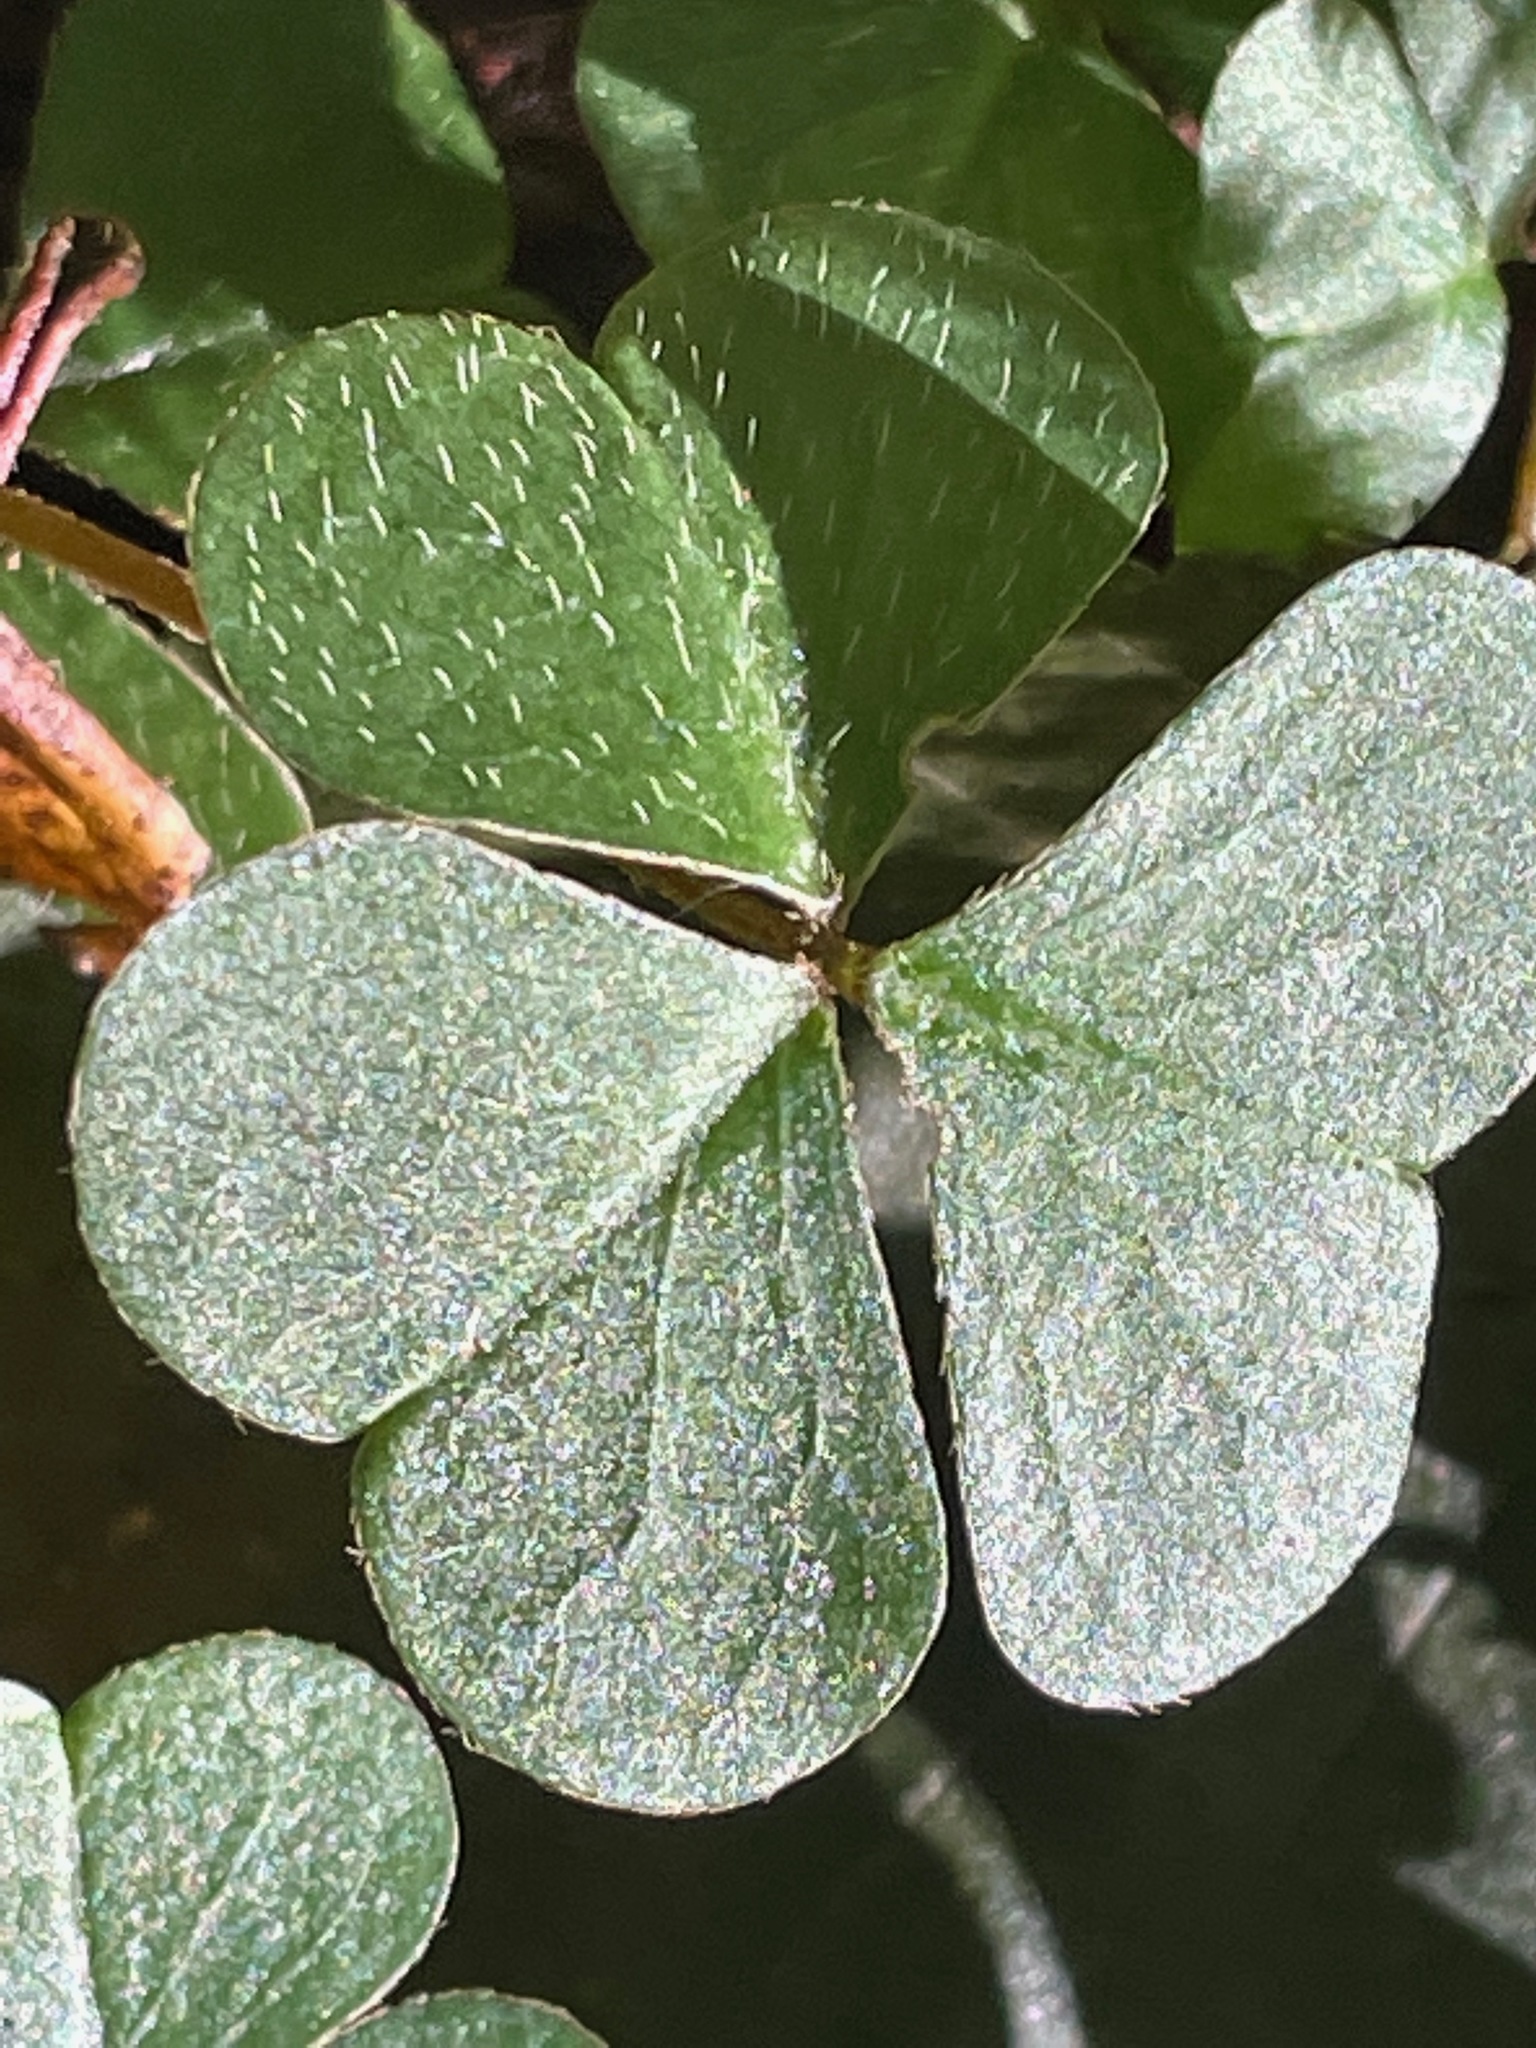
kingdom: Plantae
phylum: Tracheophyta
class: Magnoliopsida
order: Oxalidales
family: Oxalidaceae
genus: Oxalis
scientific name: Oxalis montana
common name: American wood-sorrel
